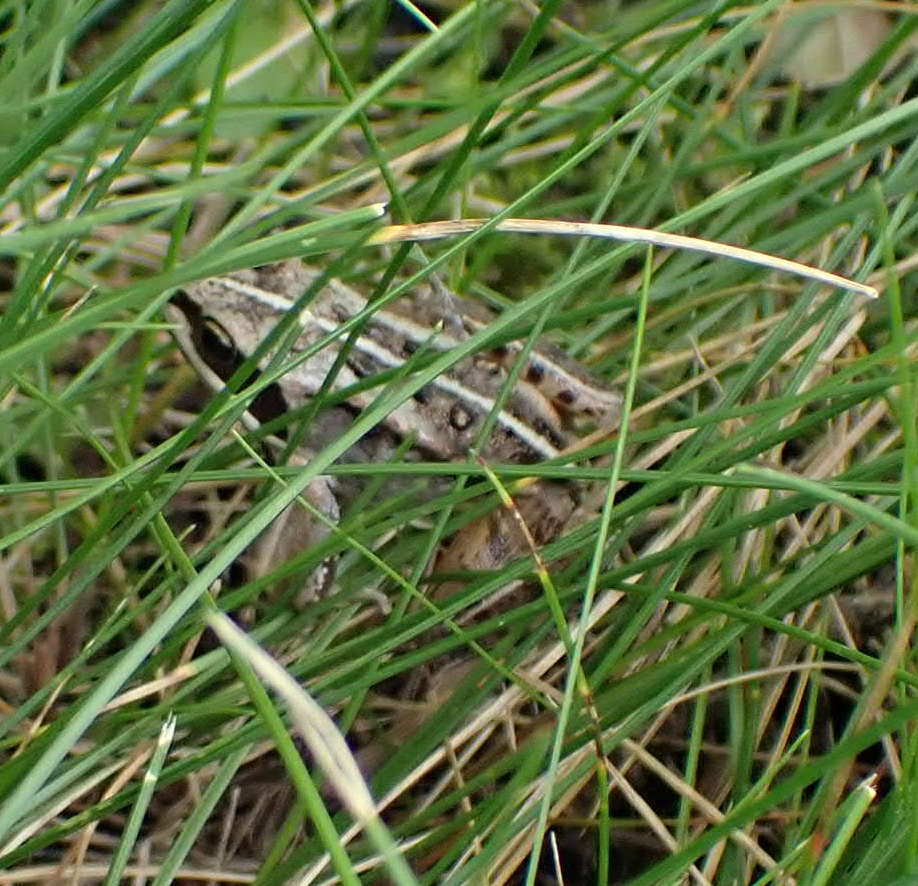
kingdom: Animalia
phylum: Chordata
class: Amphibia
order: Anura
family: Ranidae
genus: Lithobates
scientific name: Lithobates sylvaticus
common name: Wood frog
